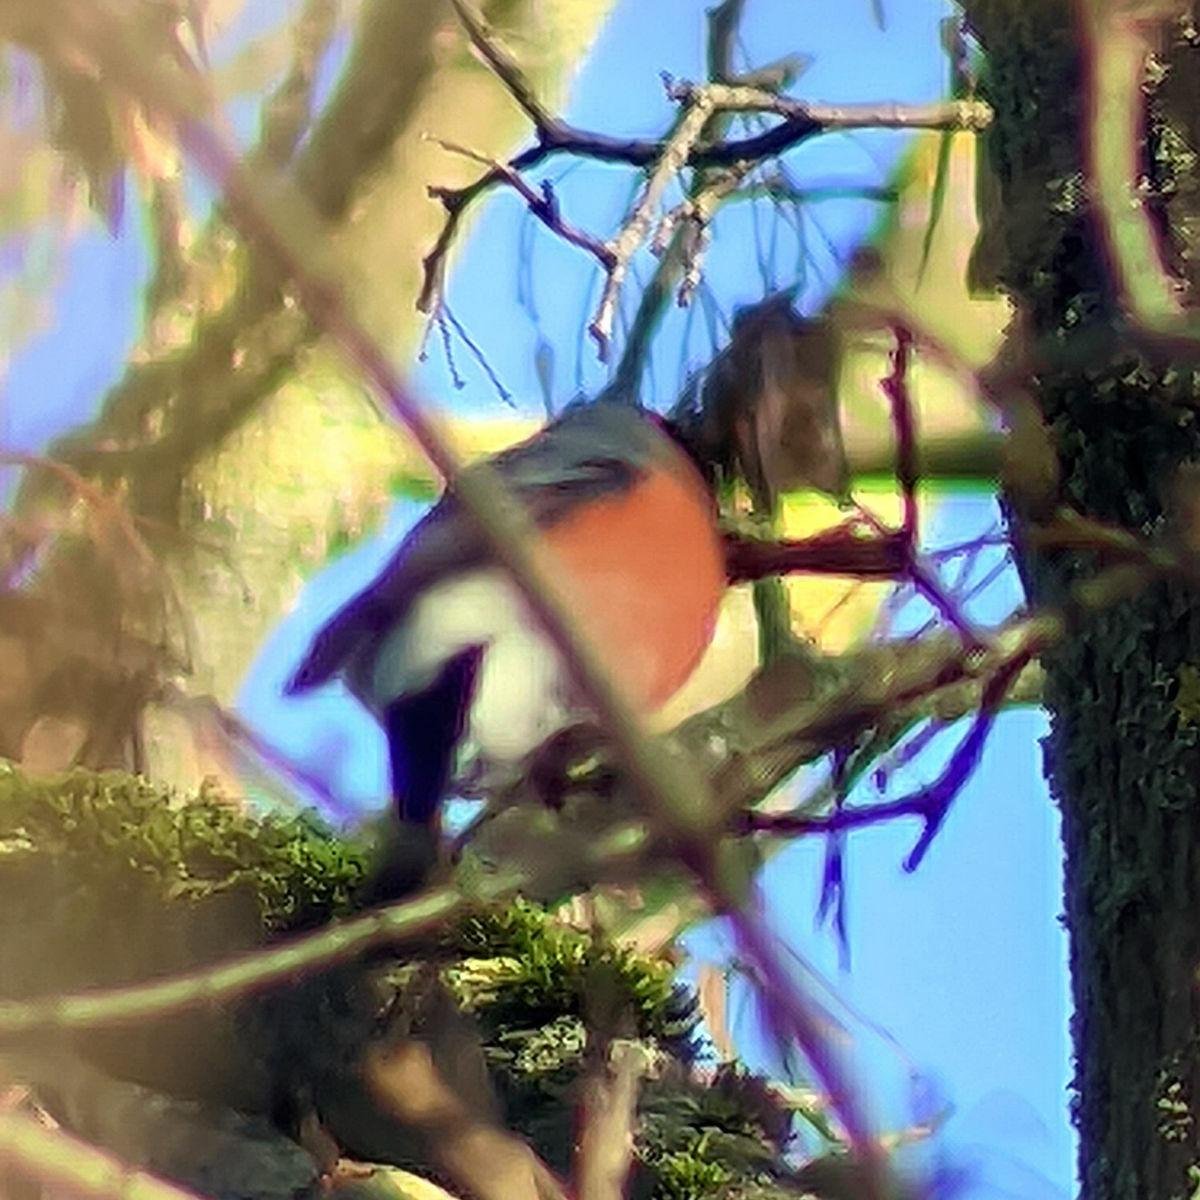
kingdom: Animalia
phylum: Chordata
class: Aves
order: Passeriformes
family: Fringillidae
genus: Pyrrhula
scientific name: Pyrrhula pyrrhula
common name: Eurasian bullfinch
